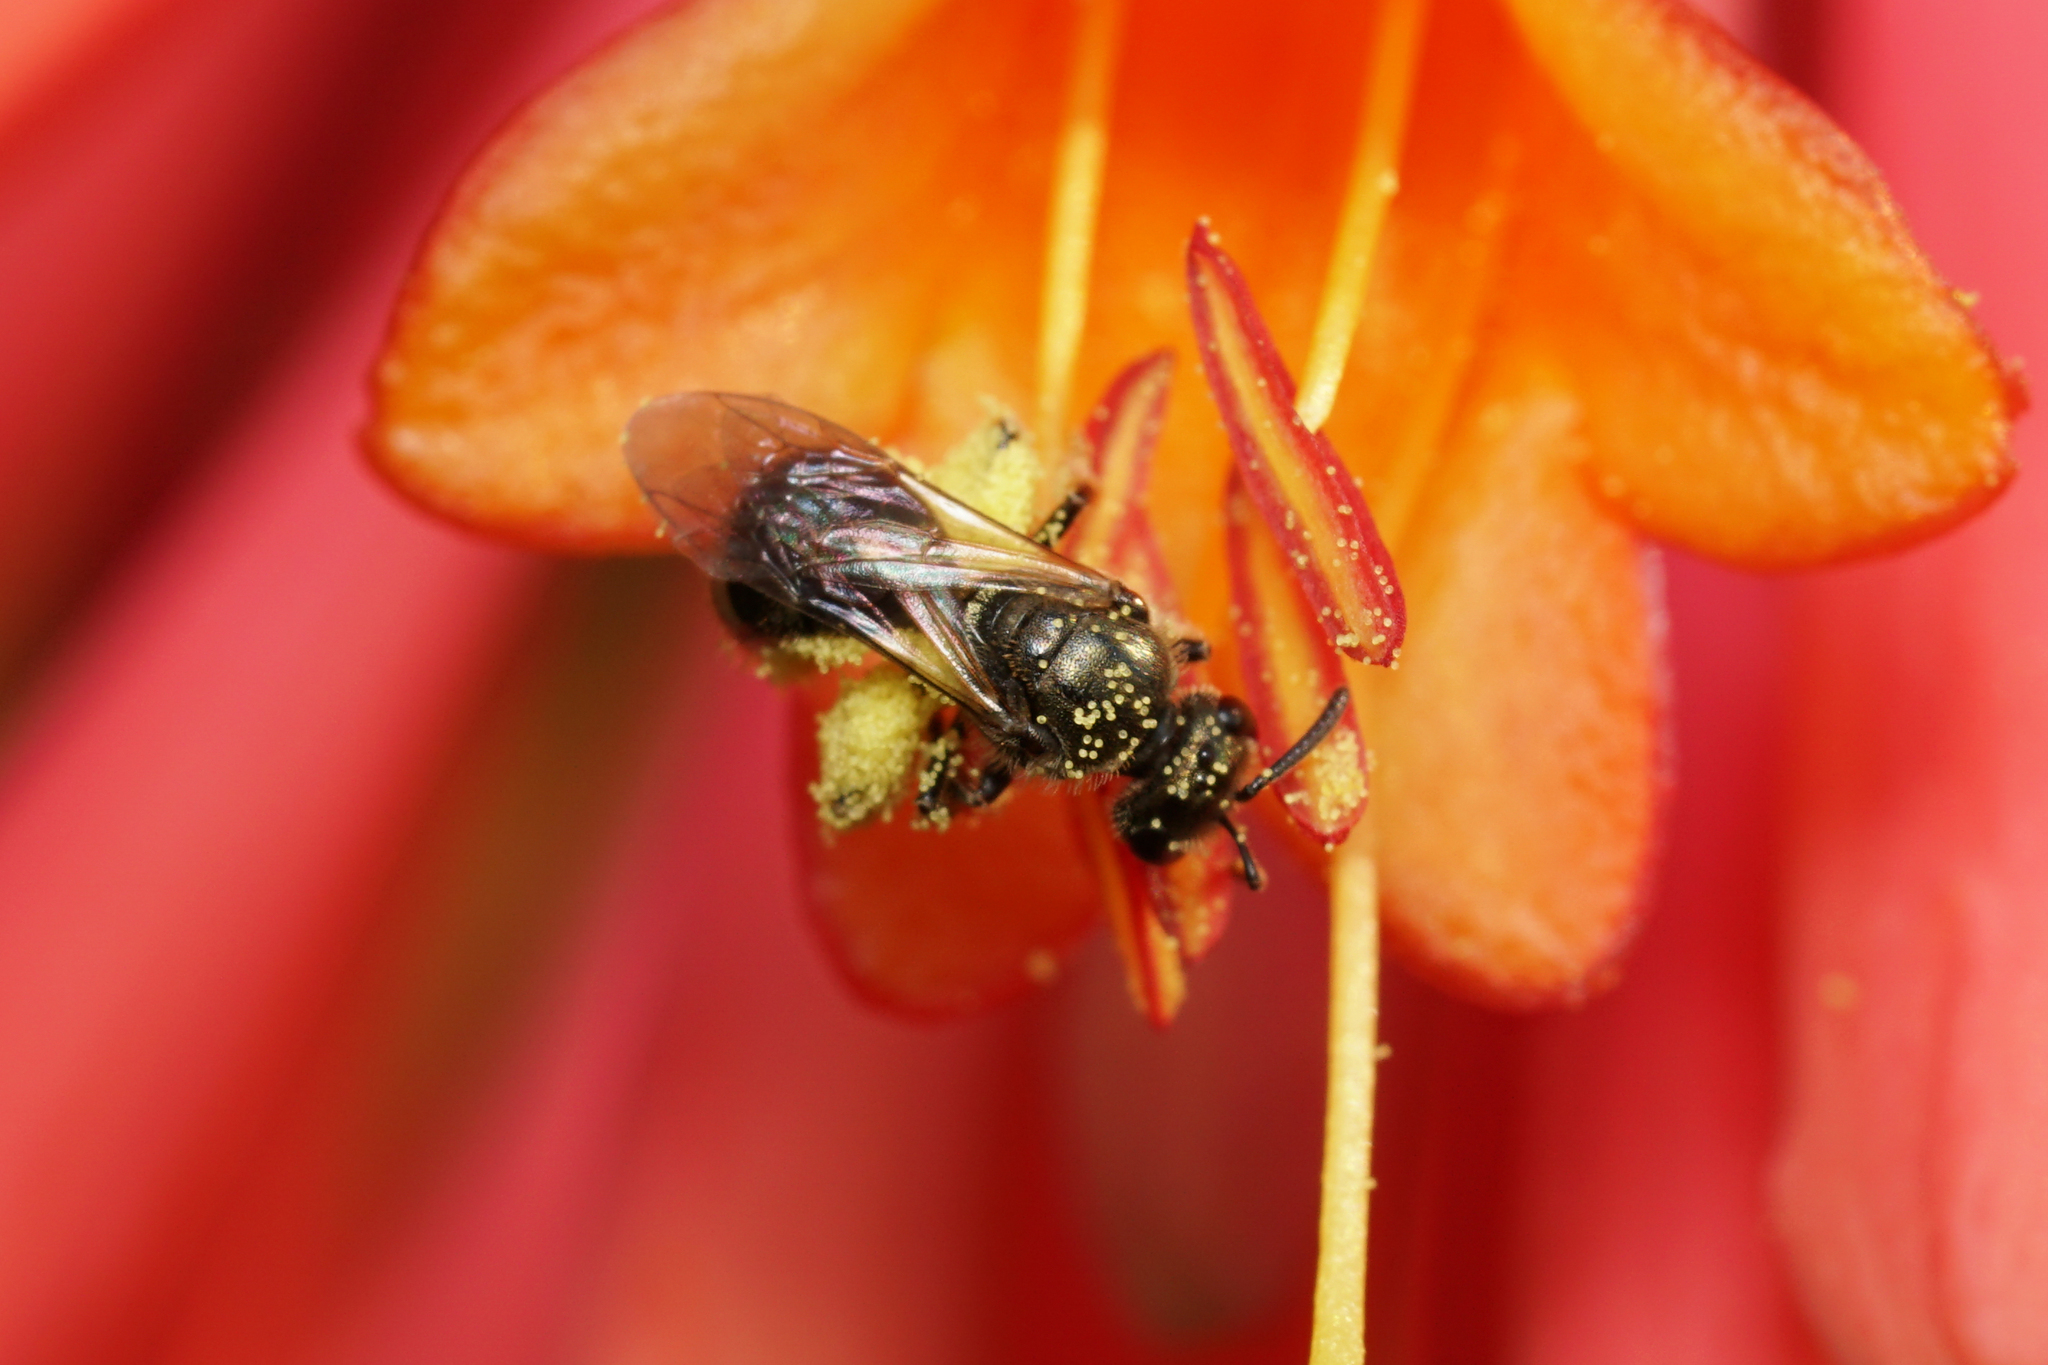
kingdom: Animalia
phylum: Arthropoda
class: Insecta
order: Hymenoptera
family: Halictidae
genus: Dialictus
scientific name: Dialictus
